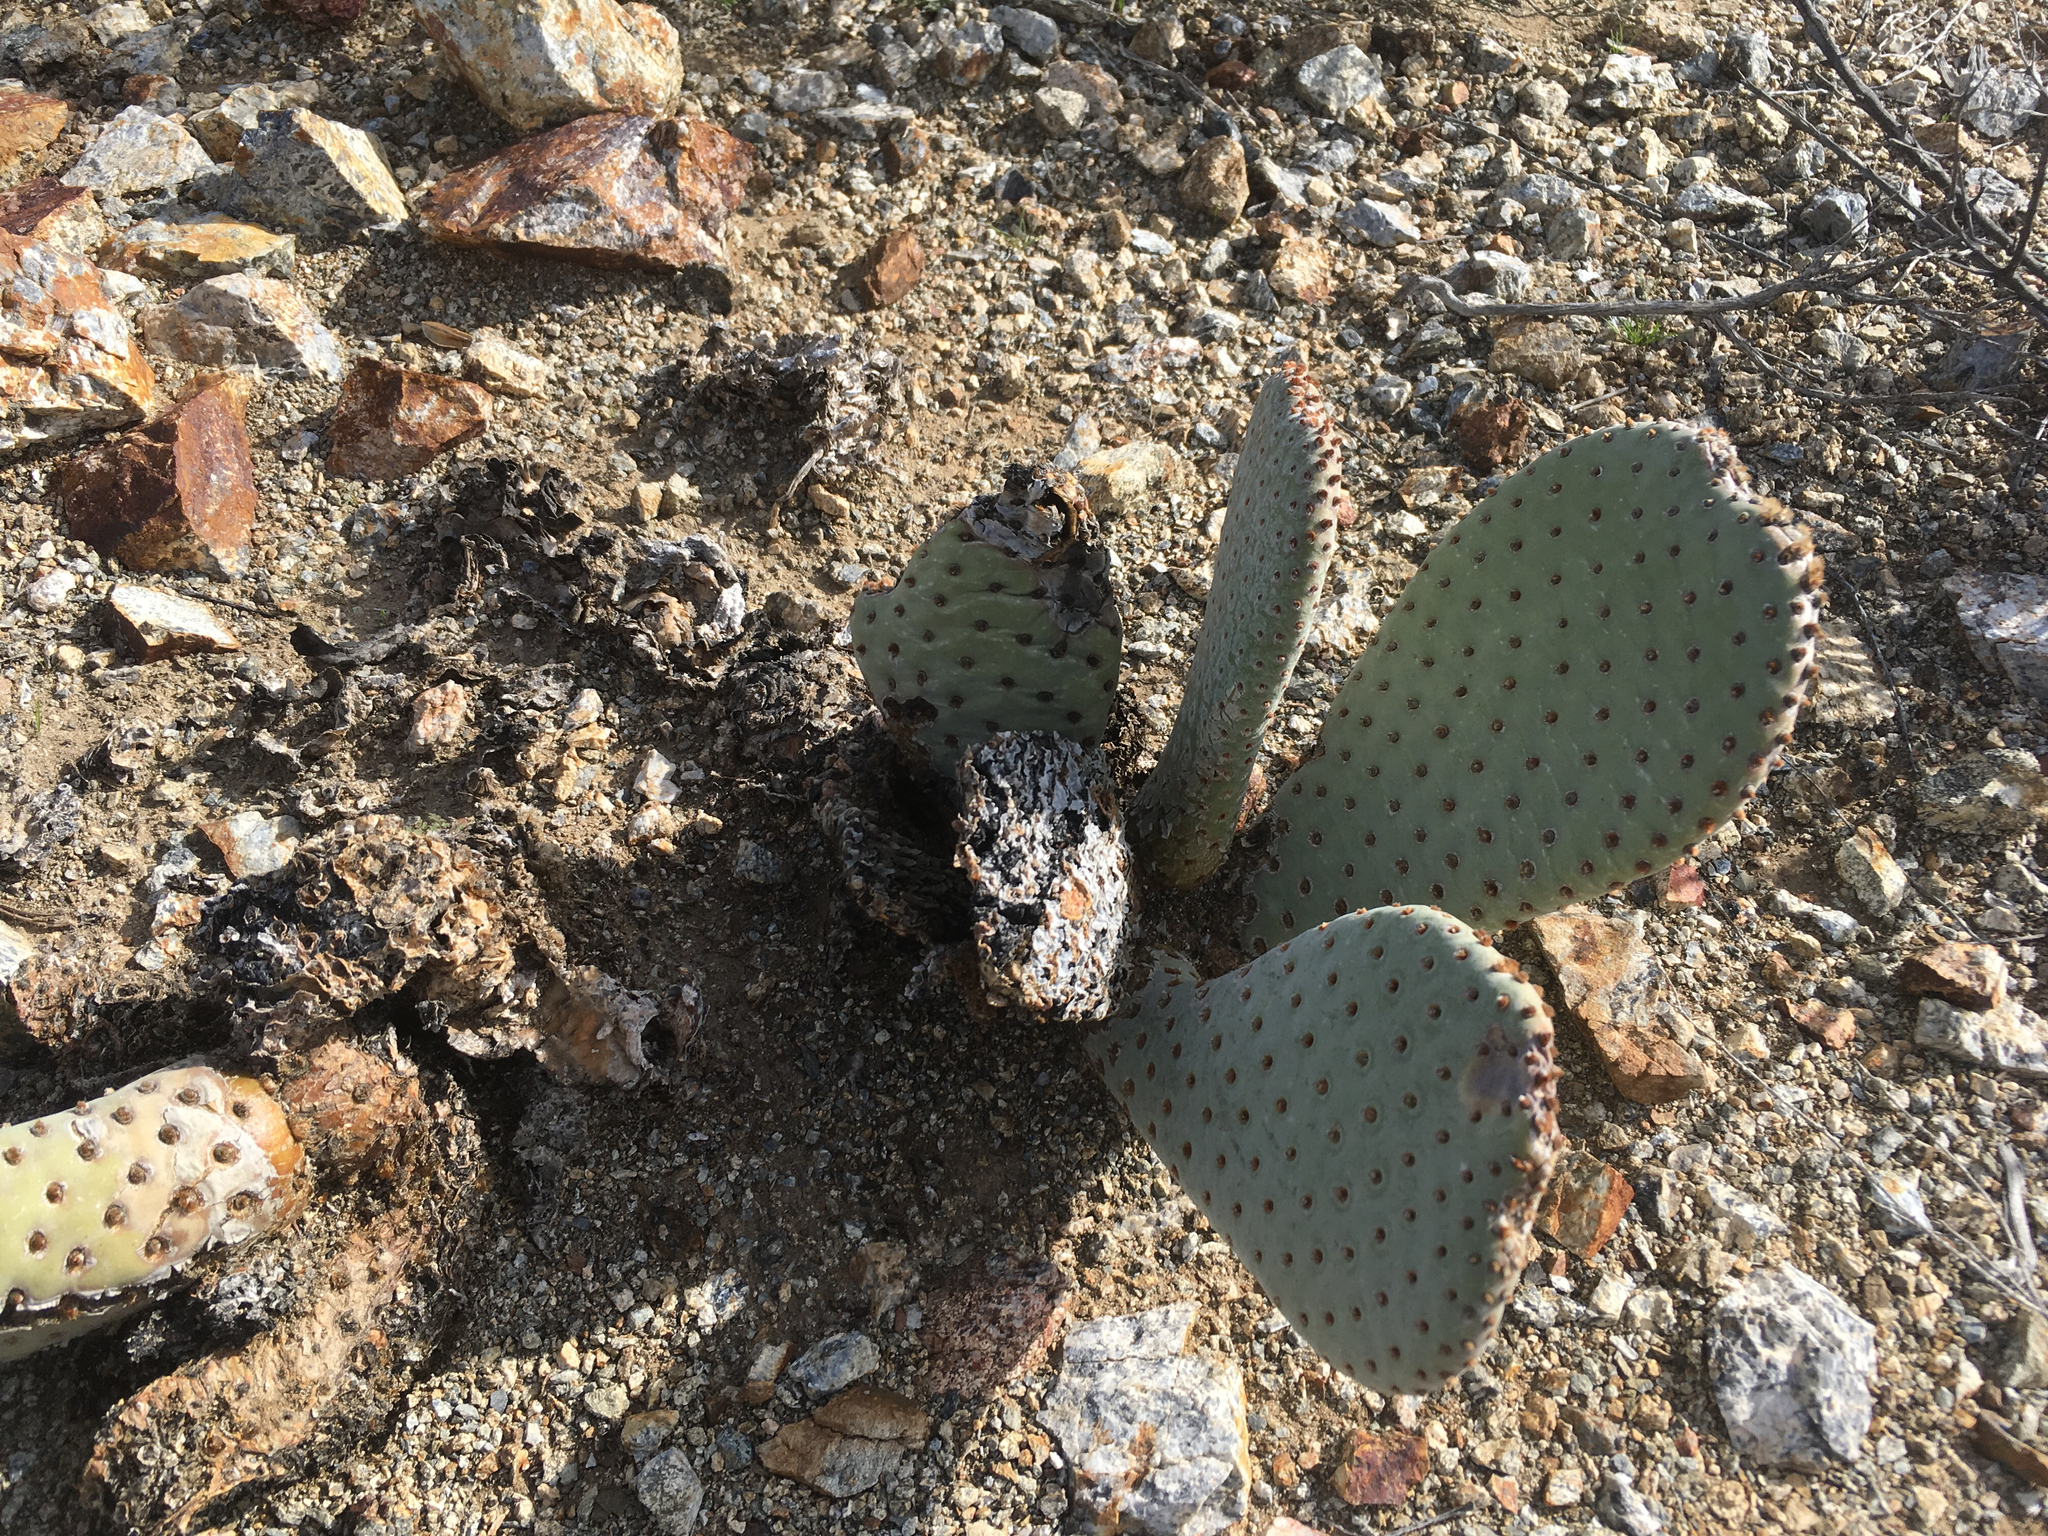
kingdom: Plantae
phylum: Tracheophyta
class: Magnoliopsida
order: Caryophyllales
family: Cactaceae
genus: Opuntia
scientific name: Opuntia basilaris
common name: Beavertail prickly-pear
